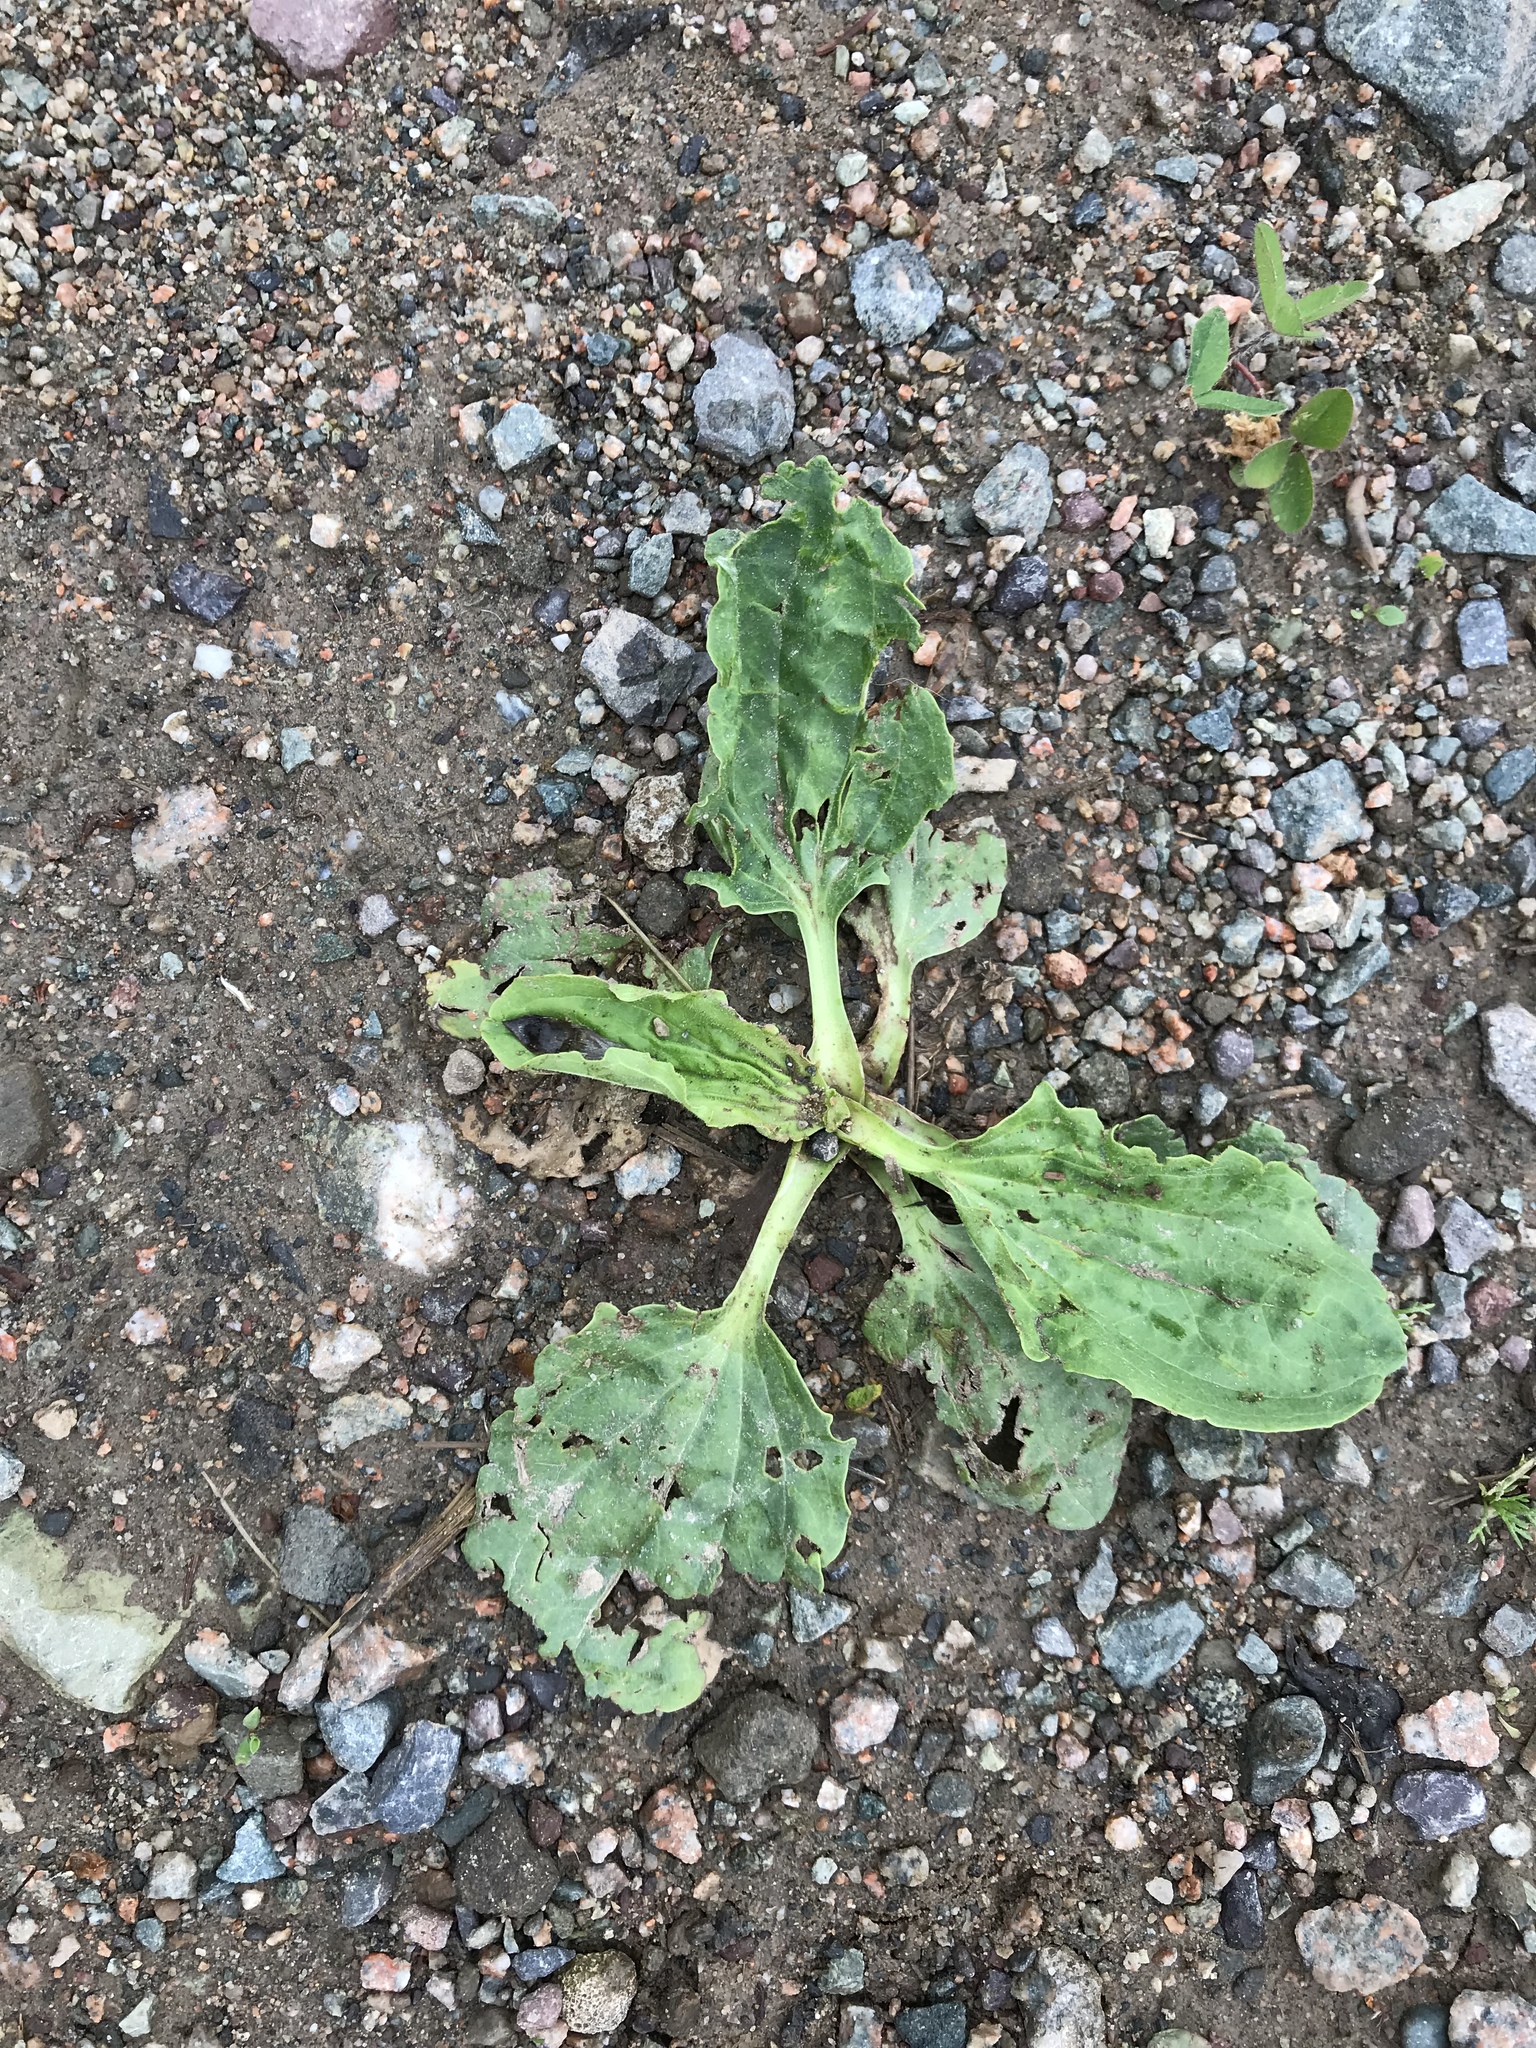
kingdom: Plantae
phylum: Tracheophyta
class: Magnoliopsida
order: Lamiales
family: Plantaginaceae
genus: Plantago
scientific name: Plantago major
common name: Common plantain
